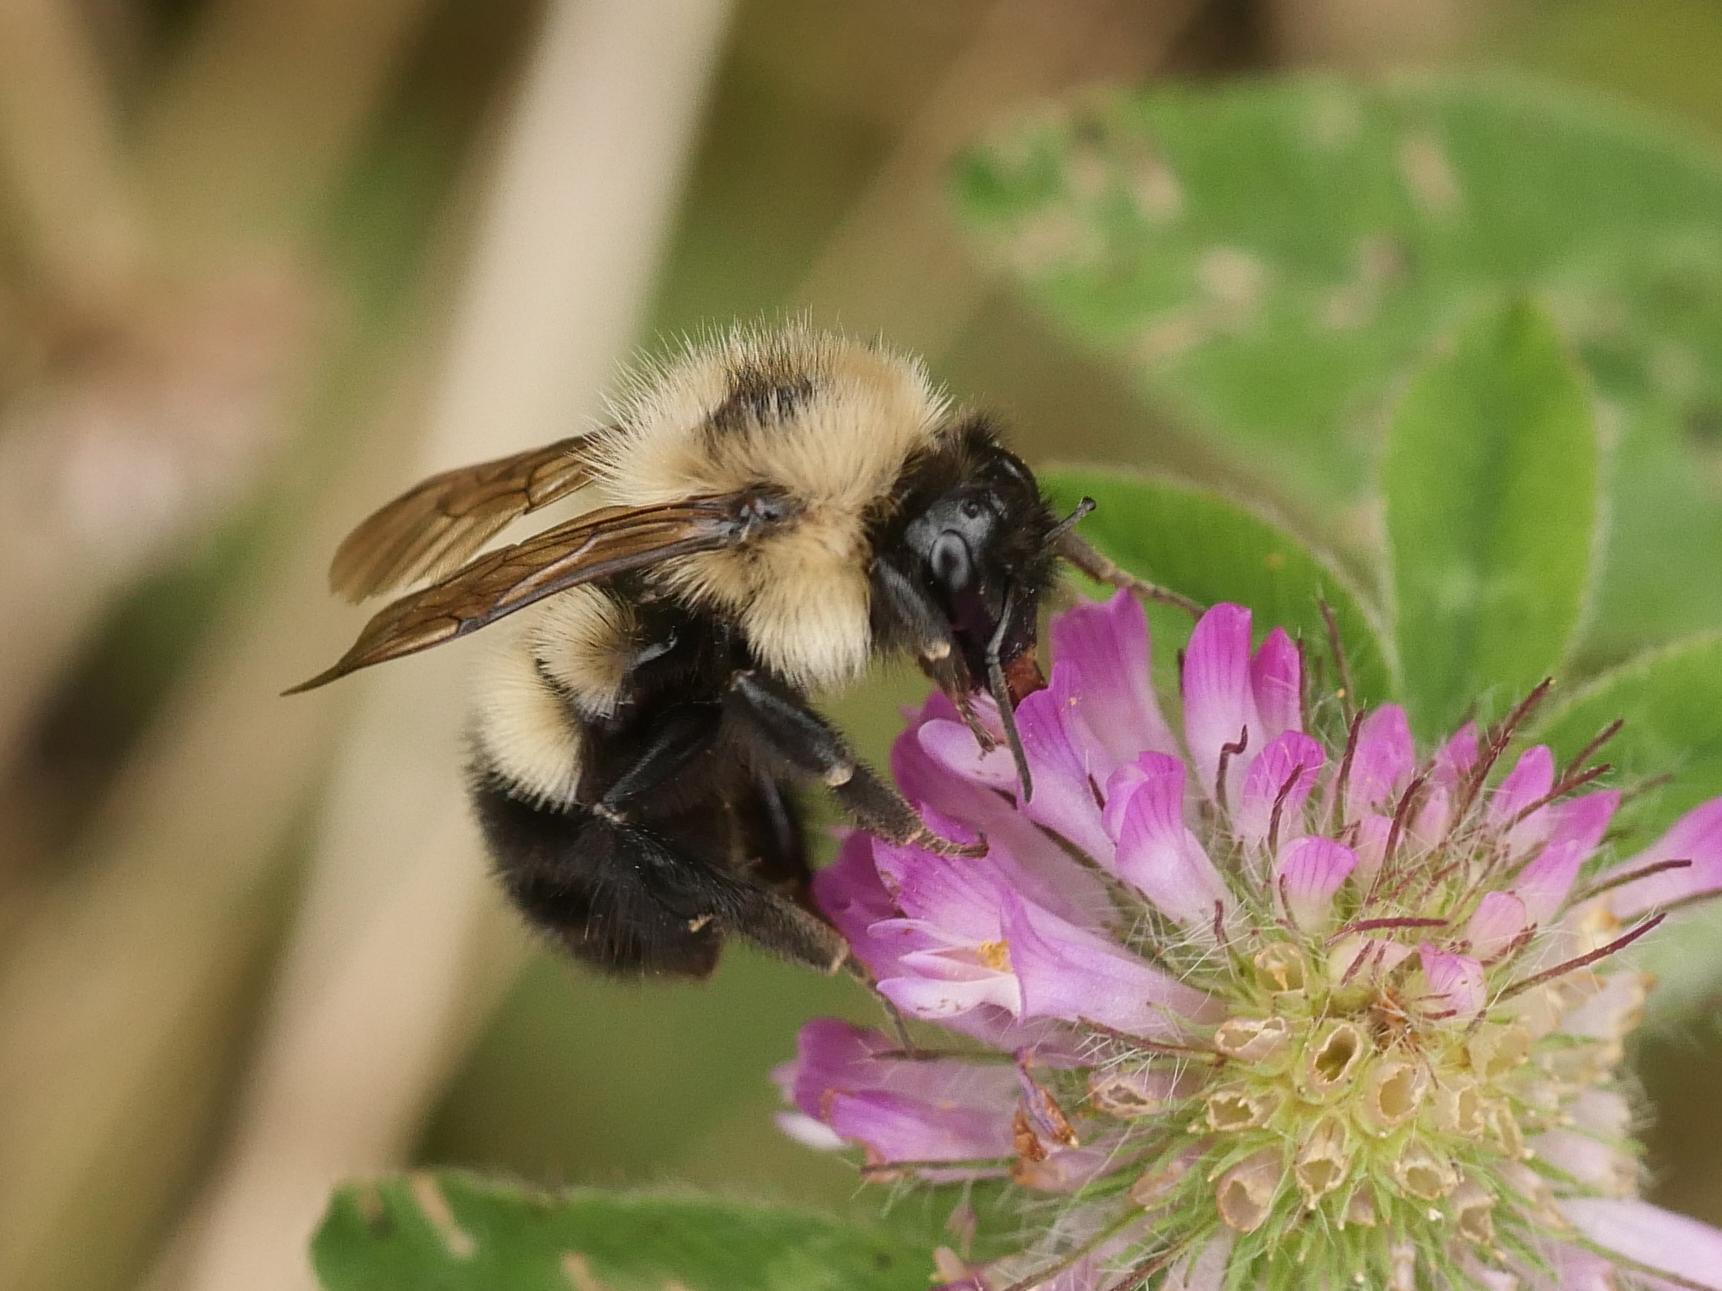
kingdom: Animalia
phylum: Arthropoda
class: Insecta
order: Hymenoptera
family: Apidae
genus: Bombus
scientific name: Bombus vagans
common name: Half-black bumble bee
